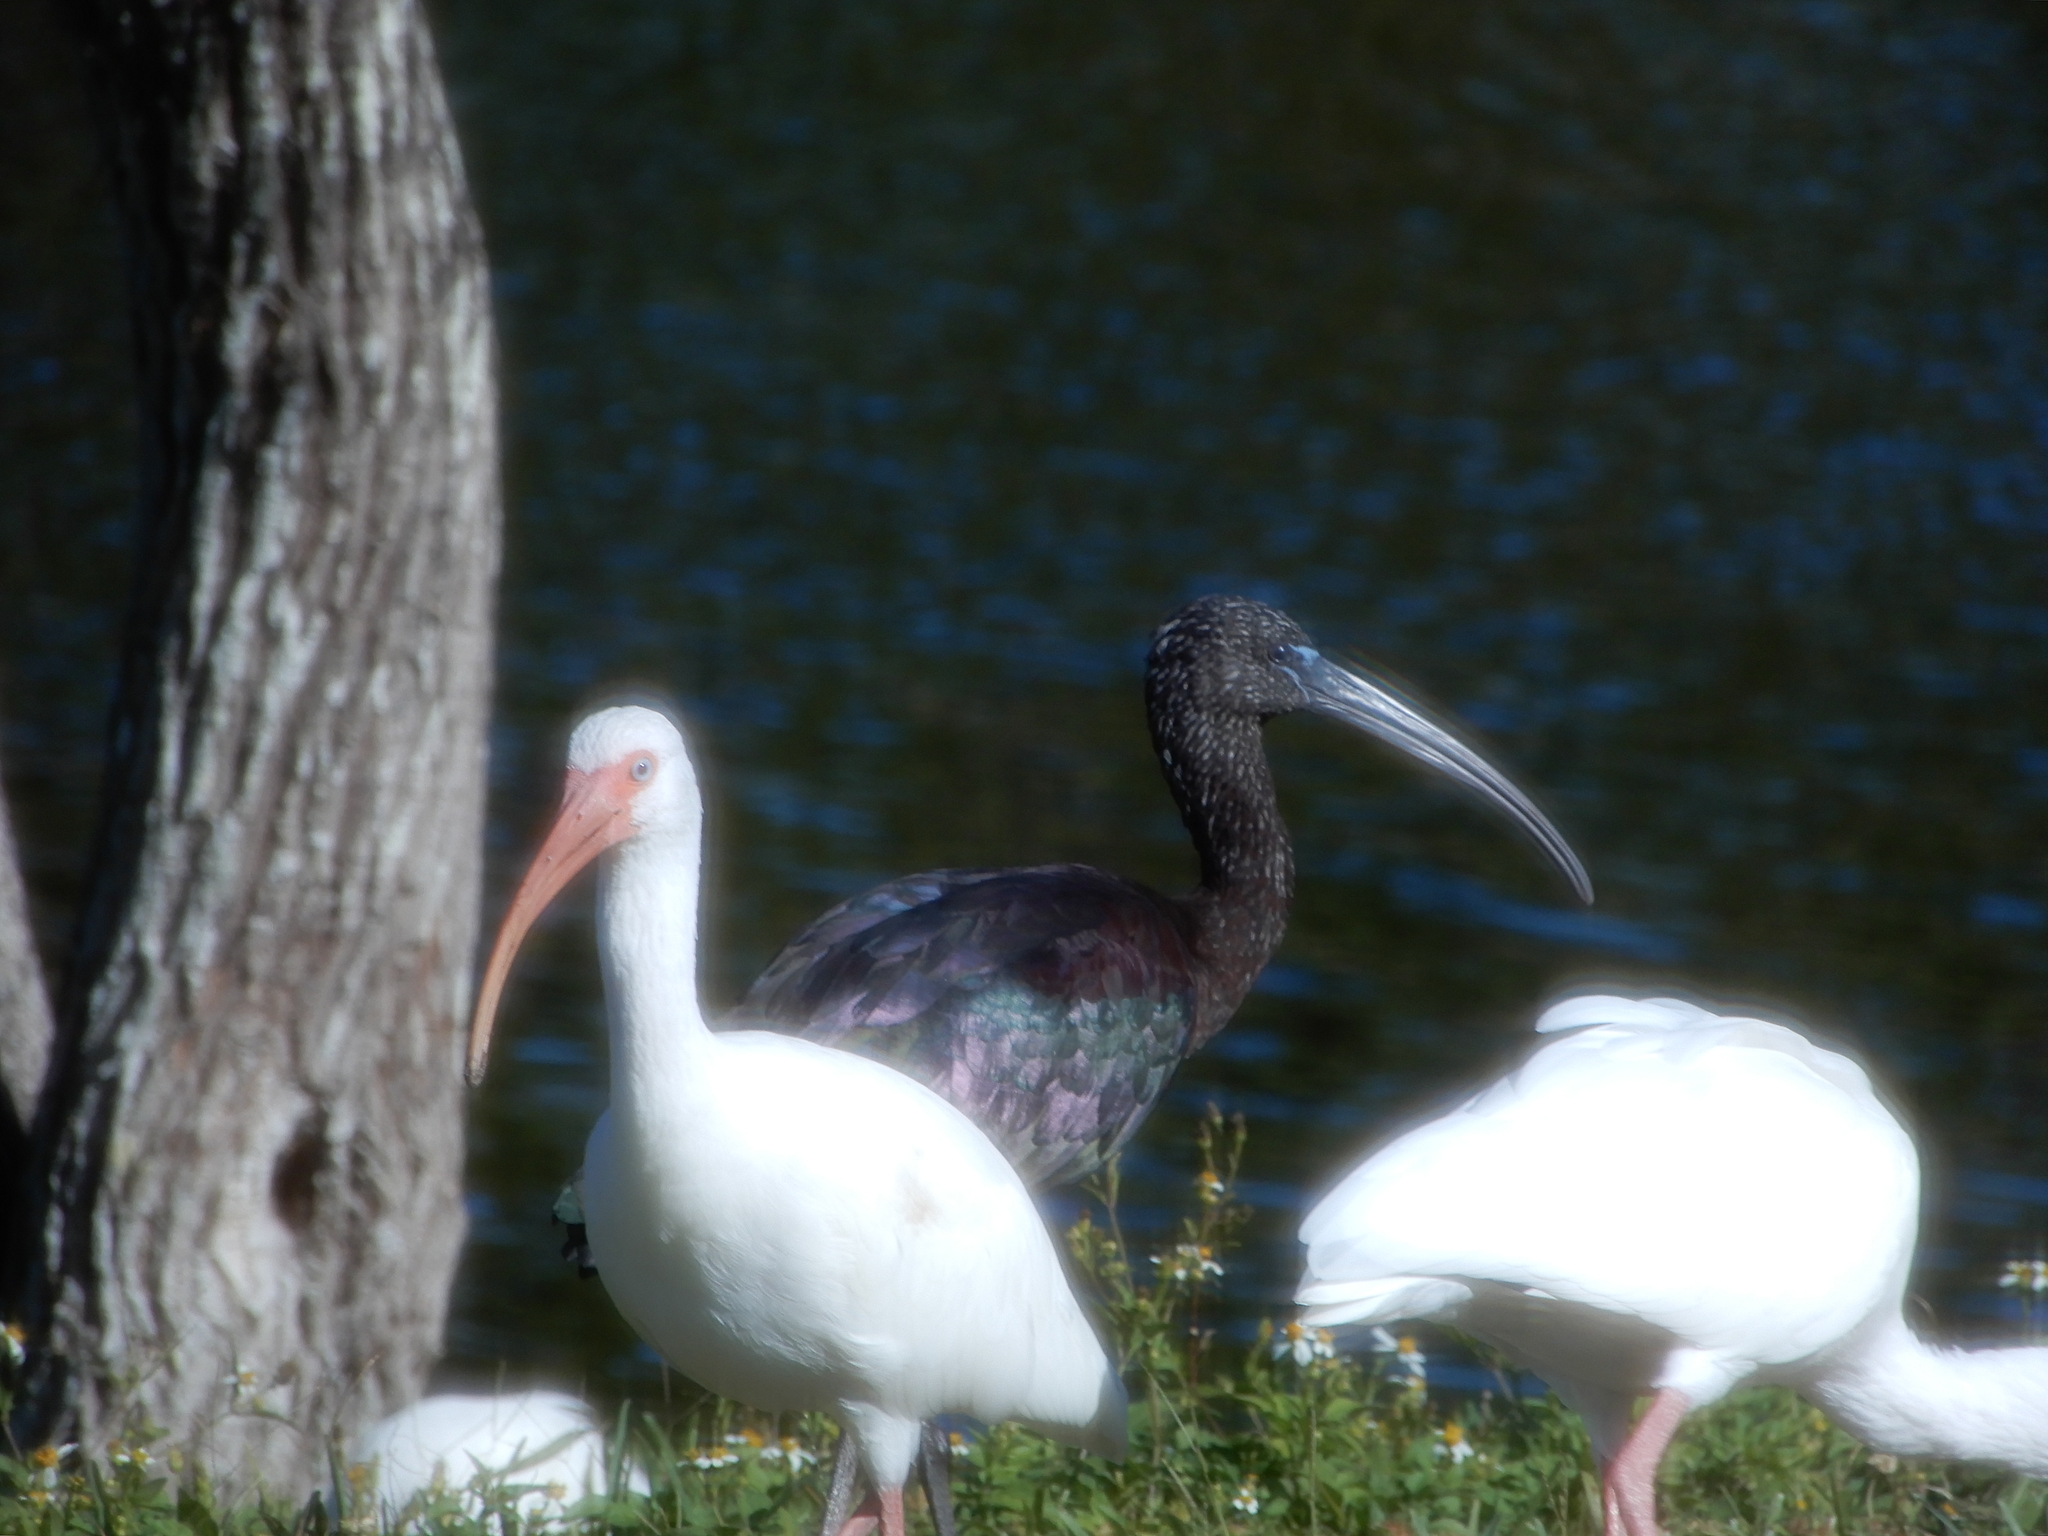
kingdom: Animalia
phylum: Chordata
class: Aves
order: Pelecaniformes
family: Threskiornithidae
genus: Plegadis
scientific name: Plegadis falcinellus
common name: Glossy ibis
